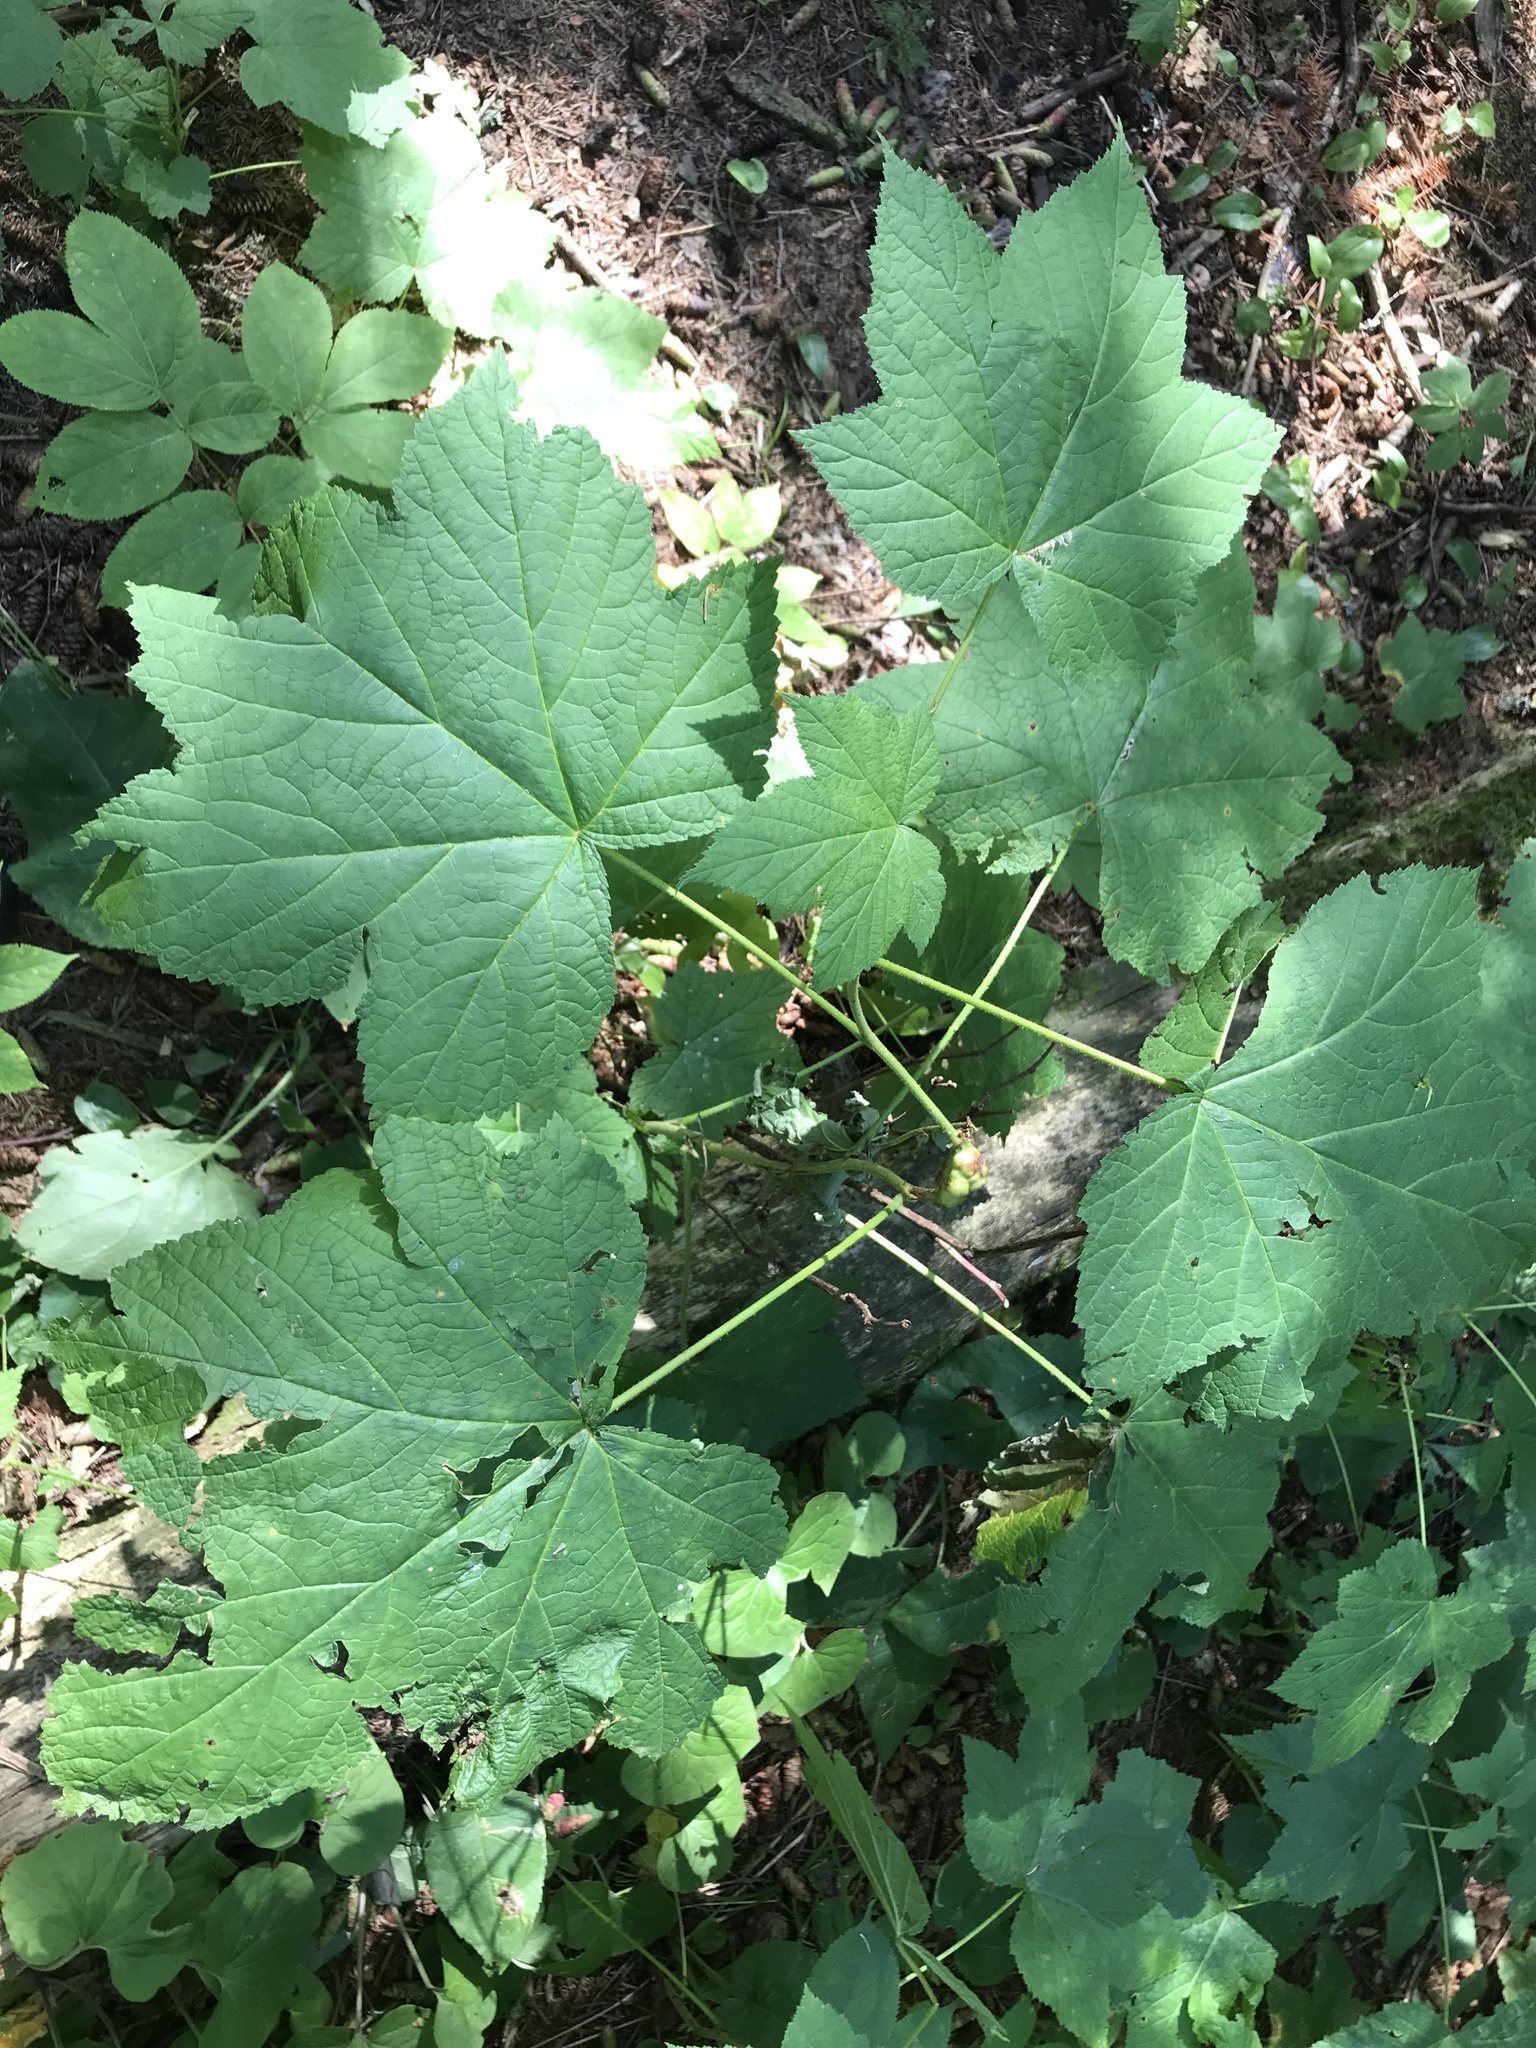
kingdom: Plantae
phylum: Tracheophyta
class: Magnoliopsida
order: Rosales
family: Rosaceae
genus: Rubus
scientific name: Rubus parviflorus
